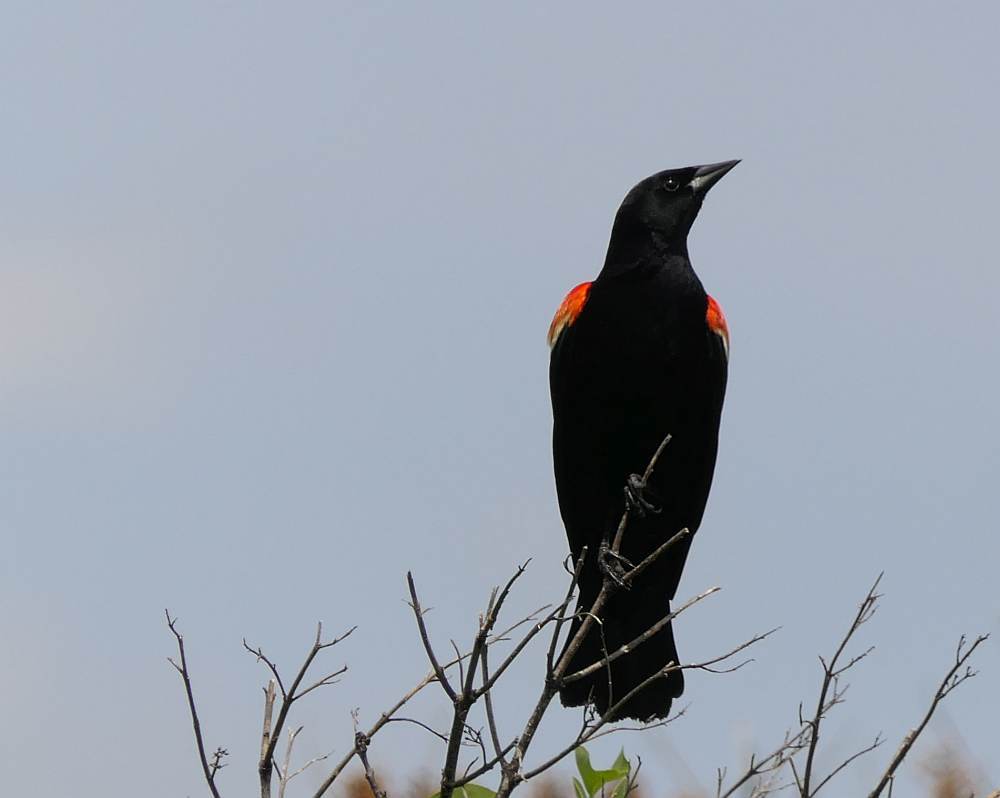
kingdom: Animalia
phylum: Chordata
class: Aves
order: Passeriformes
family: Icteridae
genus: Agelaius
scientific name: Agelaius phoeniceus
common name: Red-winged blackbird
